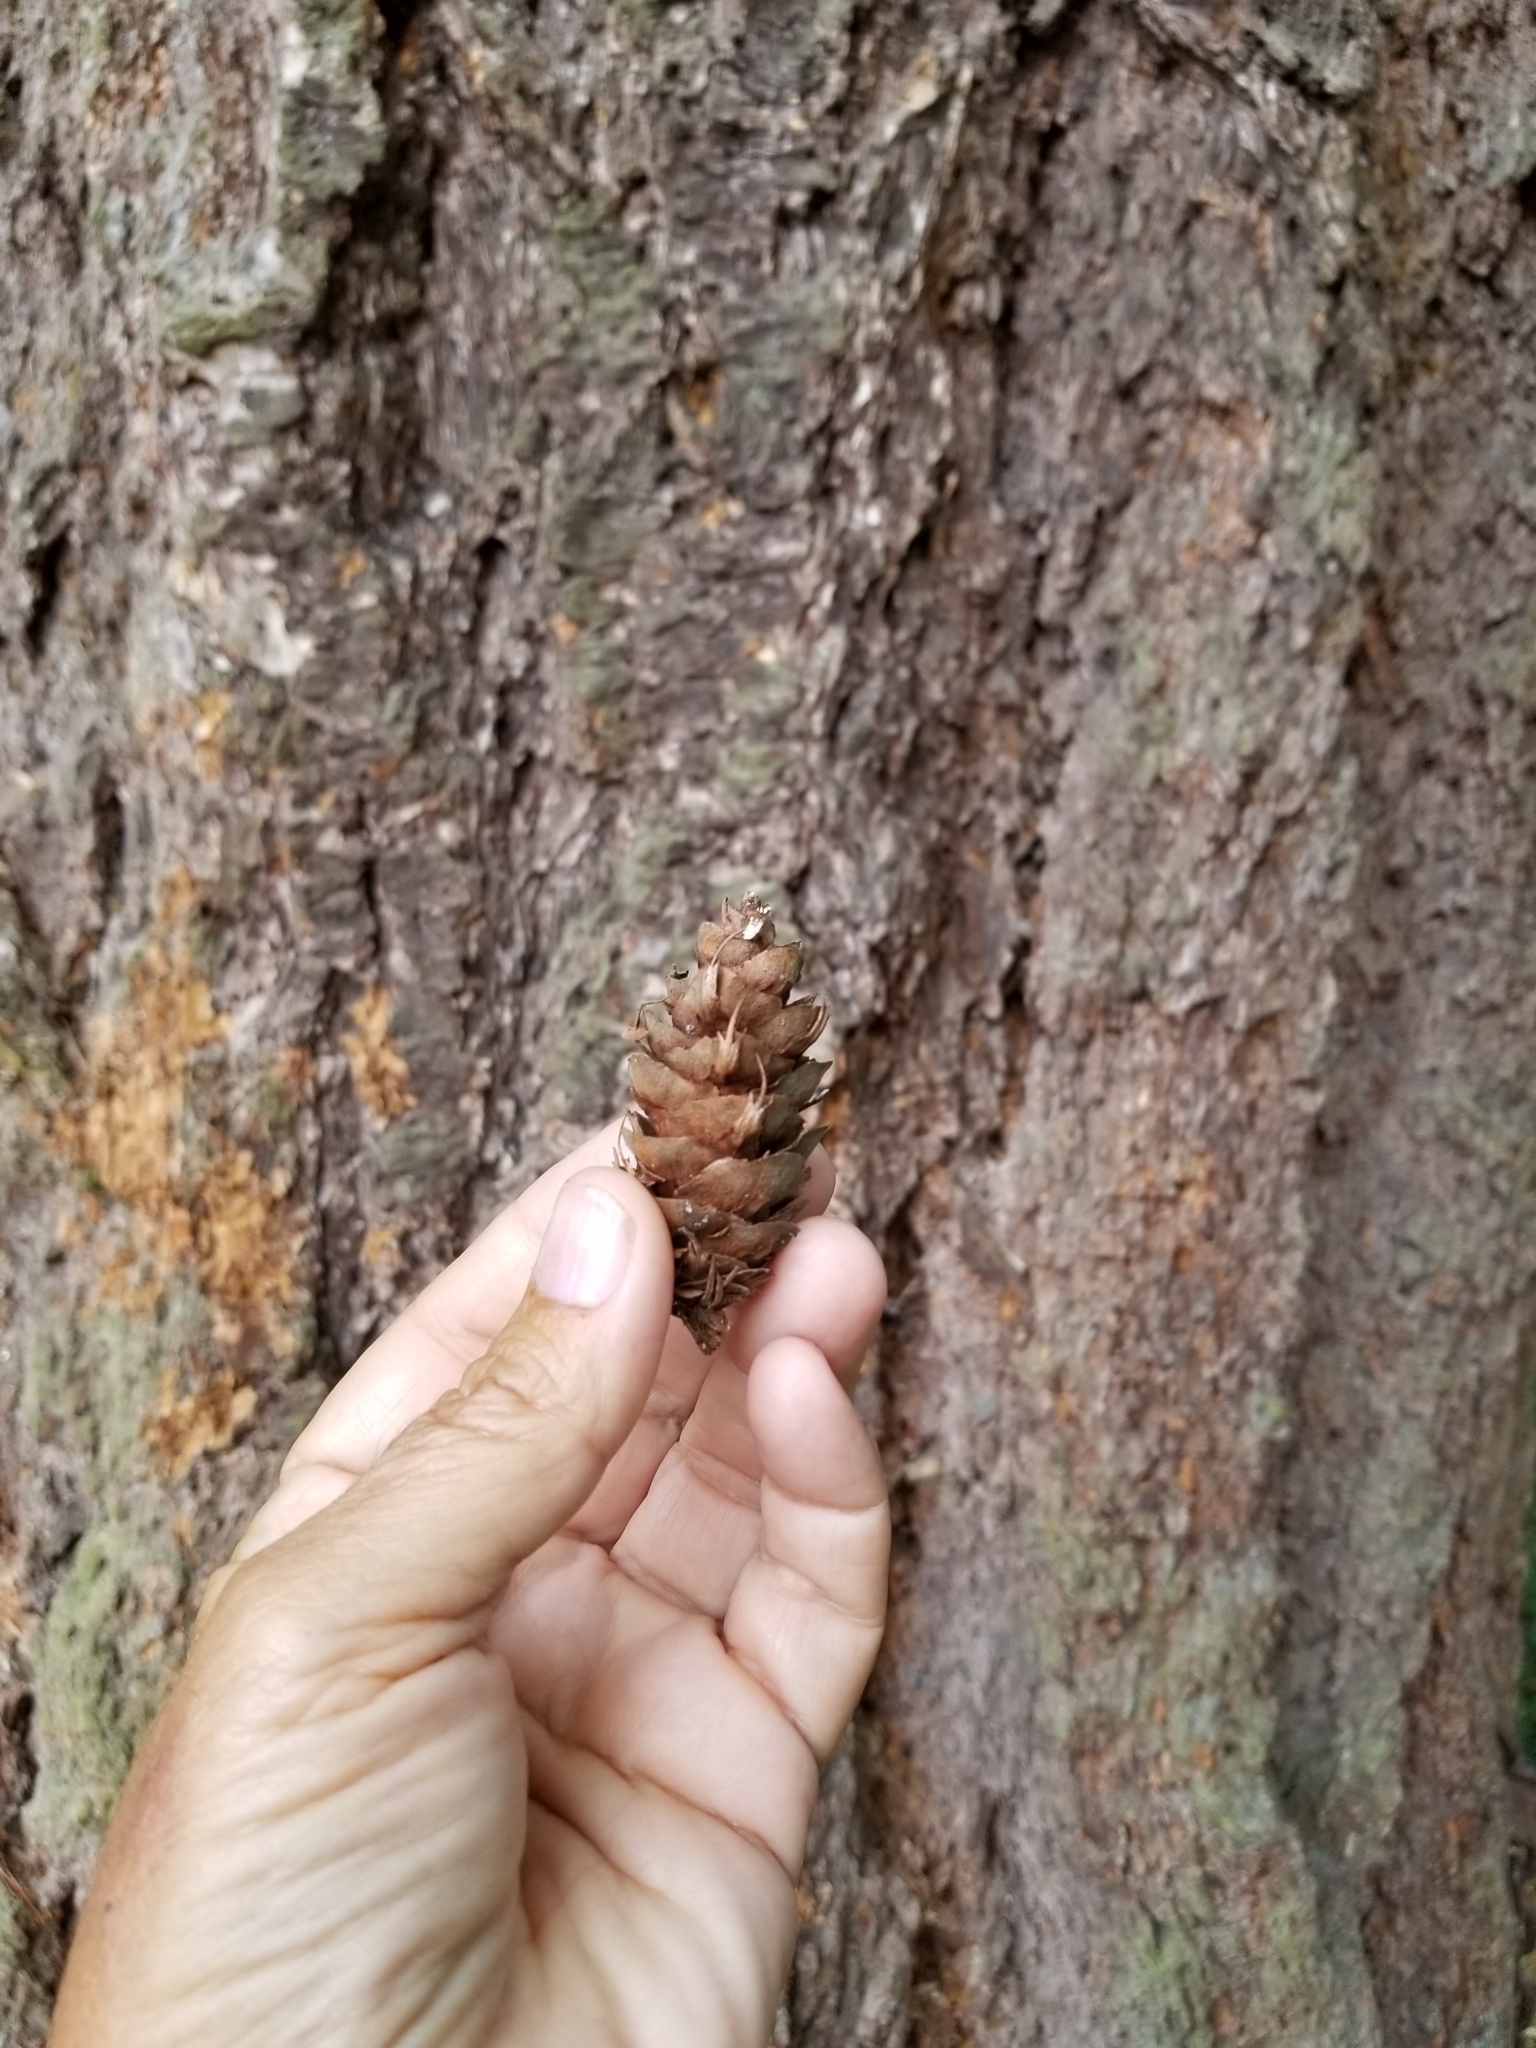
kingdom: Plantae
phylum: Tracheophyta
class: Pinopsida
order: Pinales
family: Pinaceae
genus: Pseudotsuga
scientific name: Pseudotsuga menziesii
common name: Douglas fir
